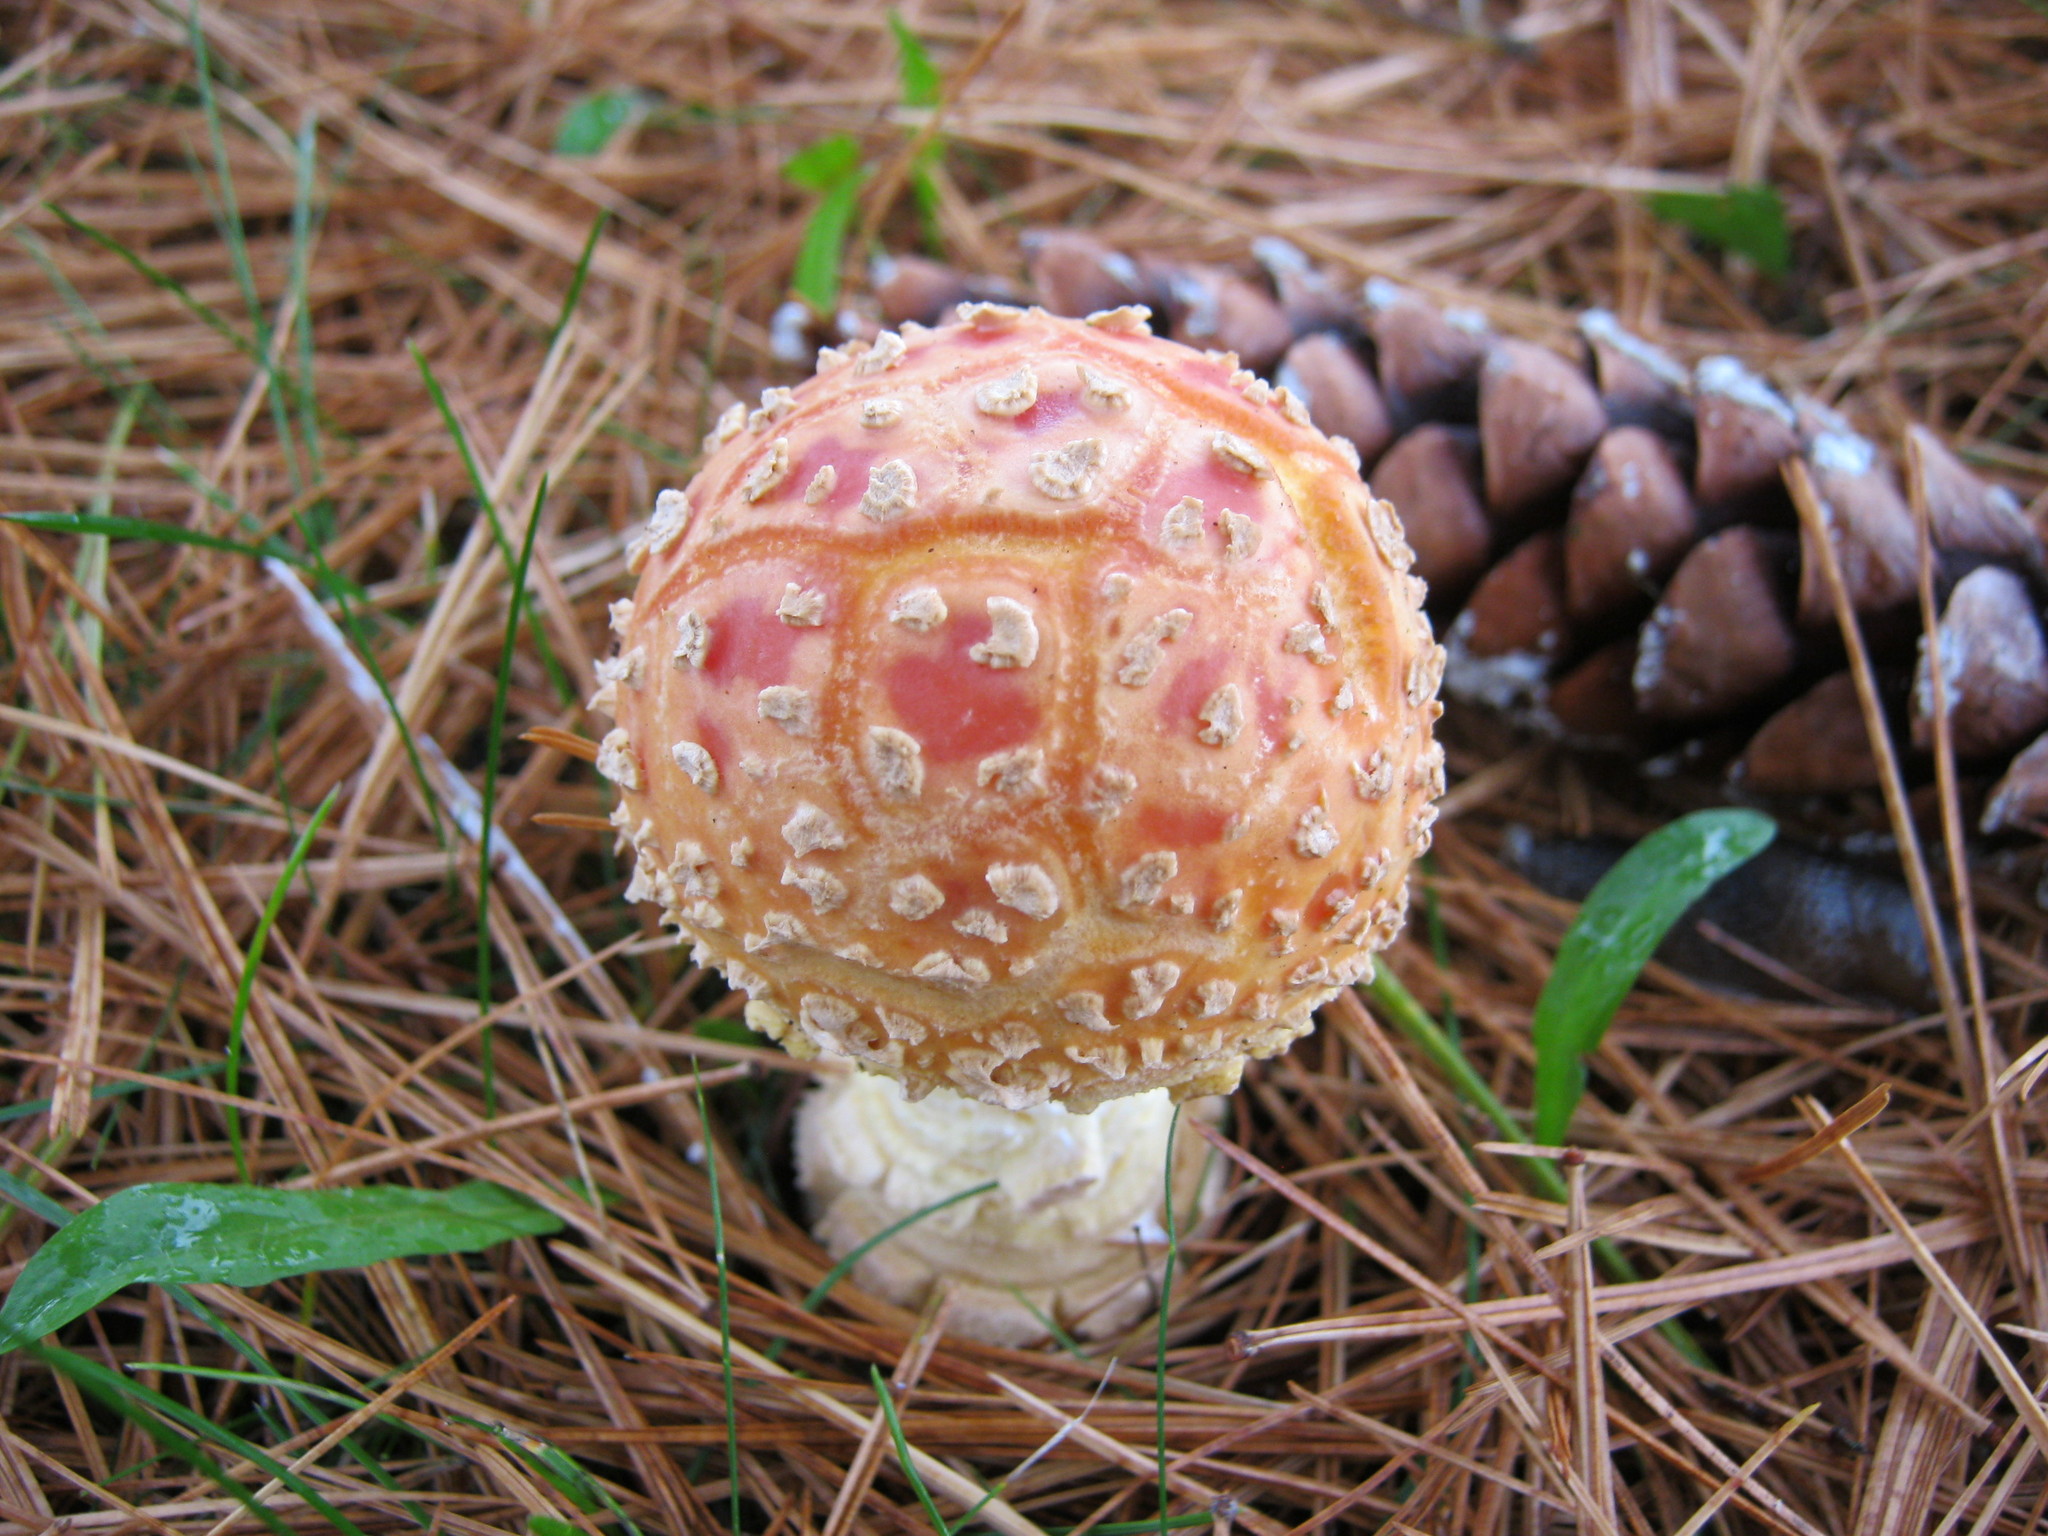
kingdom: Fungi
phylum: Basidiomycota
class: Agaricomycetes
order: Agaricales
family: Amanitaceae
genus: Amanita
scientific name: Amanita muscaria
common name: Fly agaric
